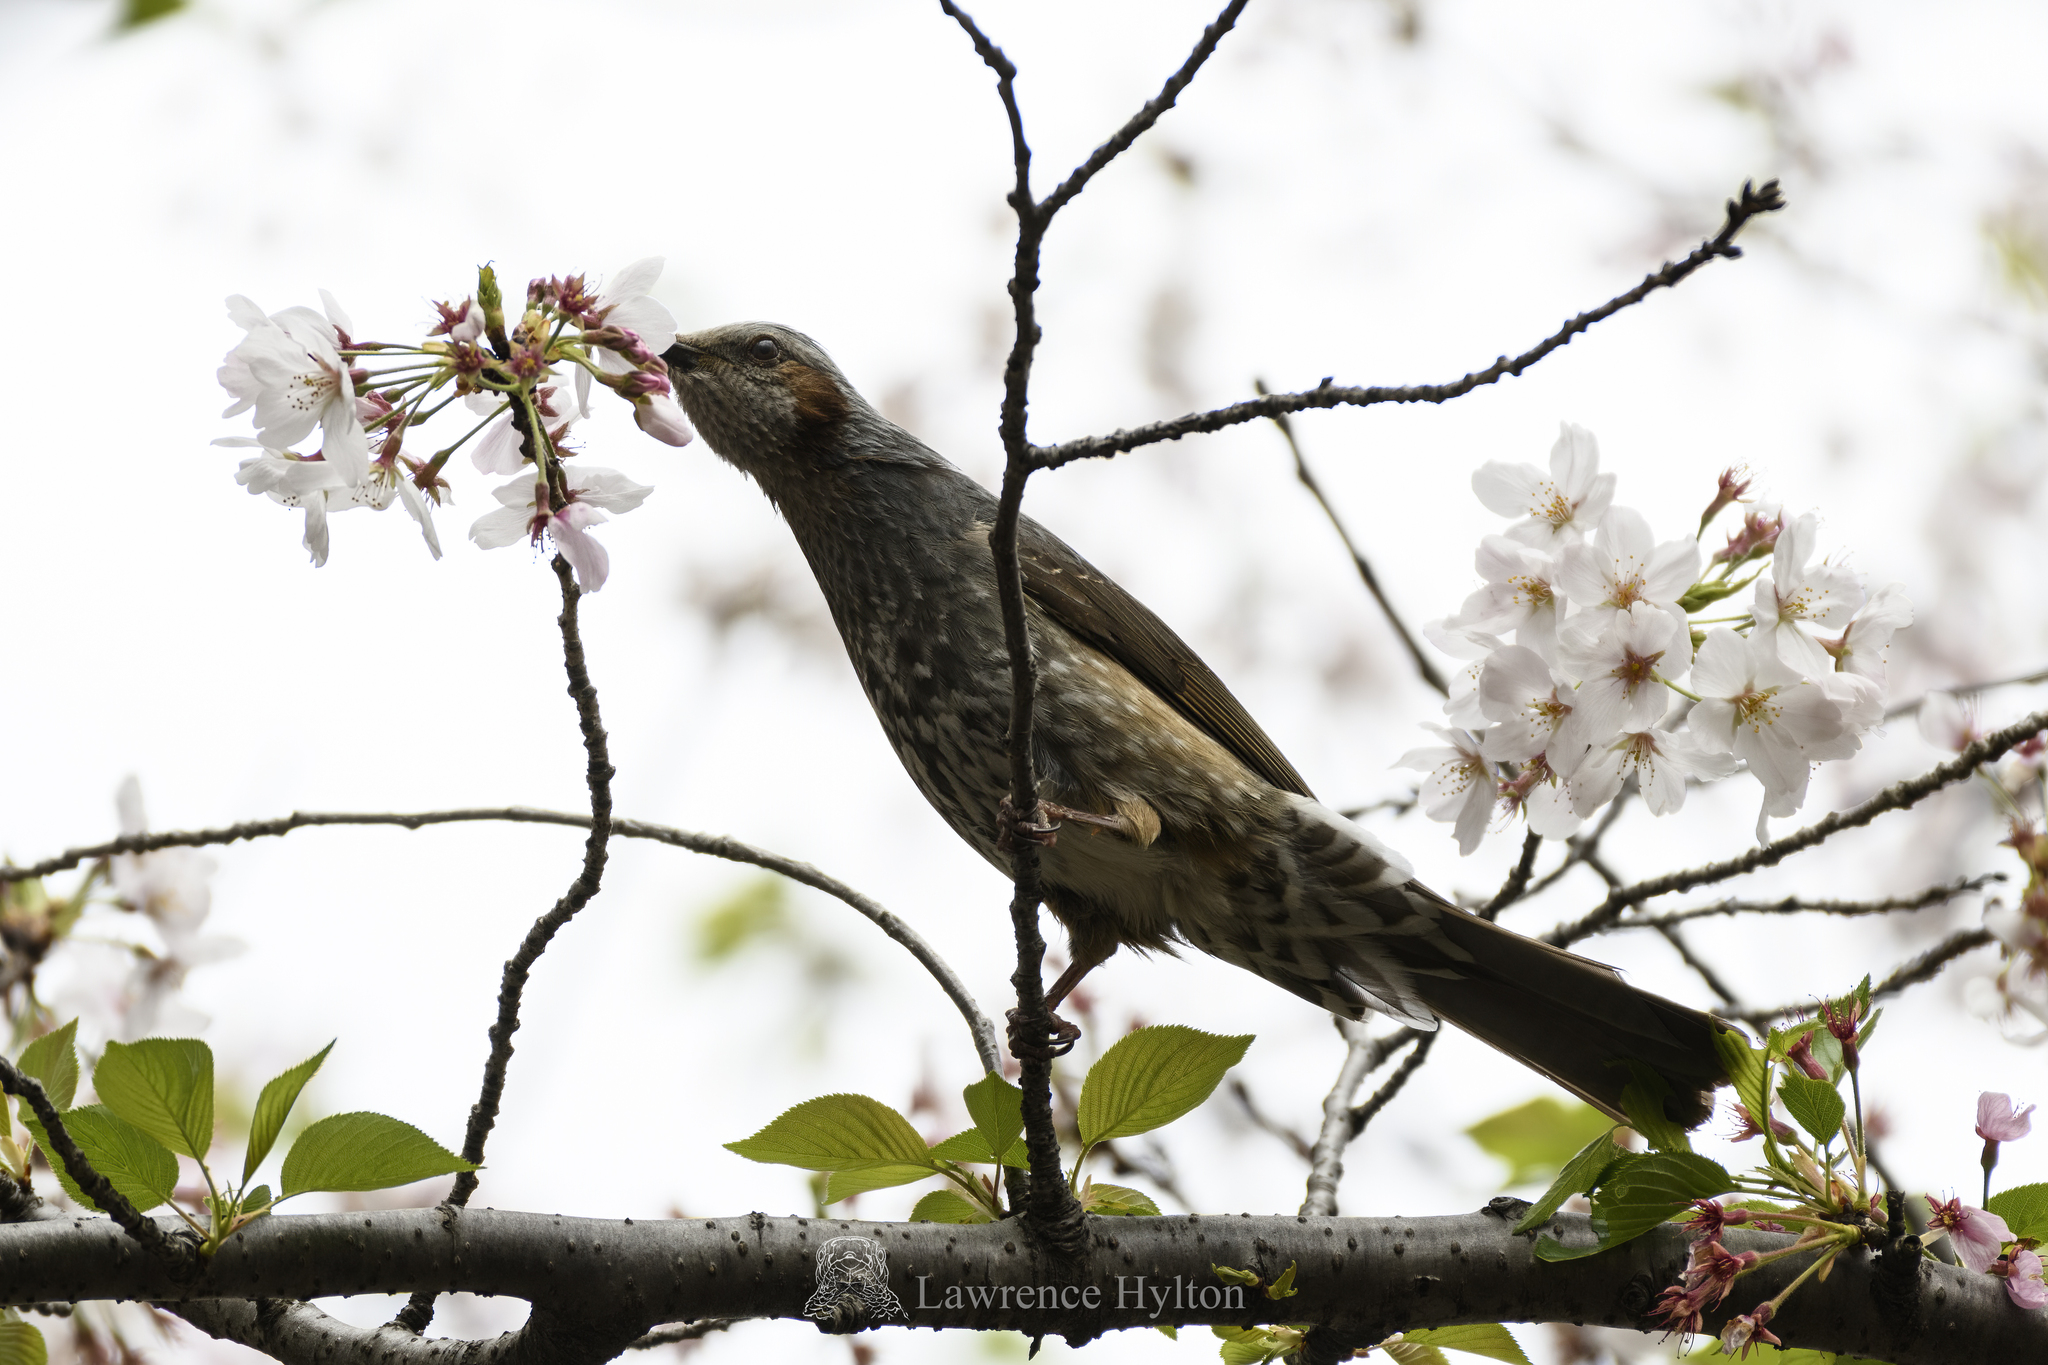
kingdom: Animalia
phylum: Chordata
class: Aves
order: Passeriformes
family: Pycnonotidae
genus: Hypsipetes
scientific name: Hypsipetes amaurotis
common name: Brown-eared bulbul
